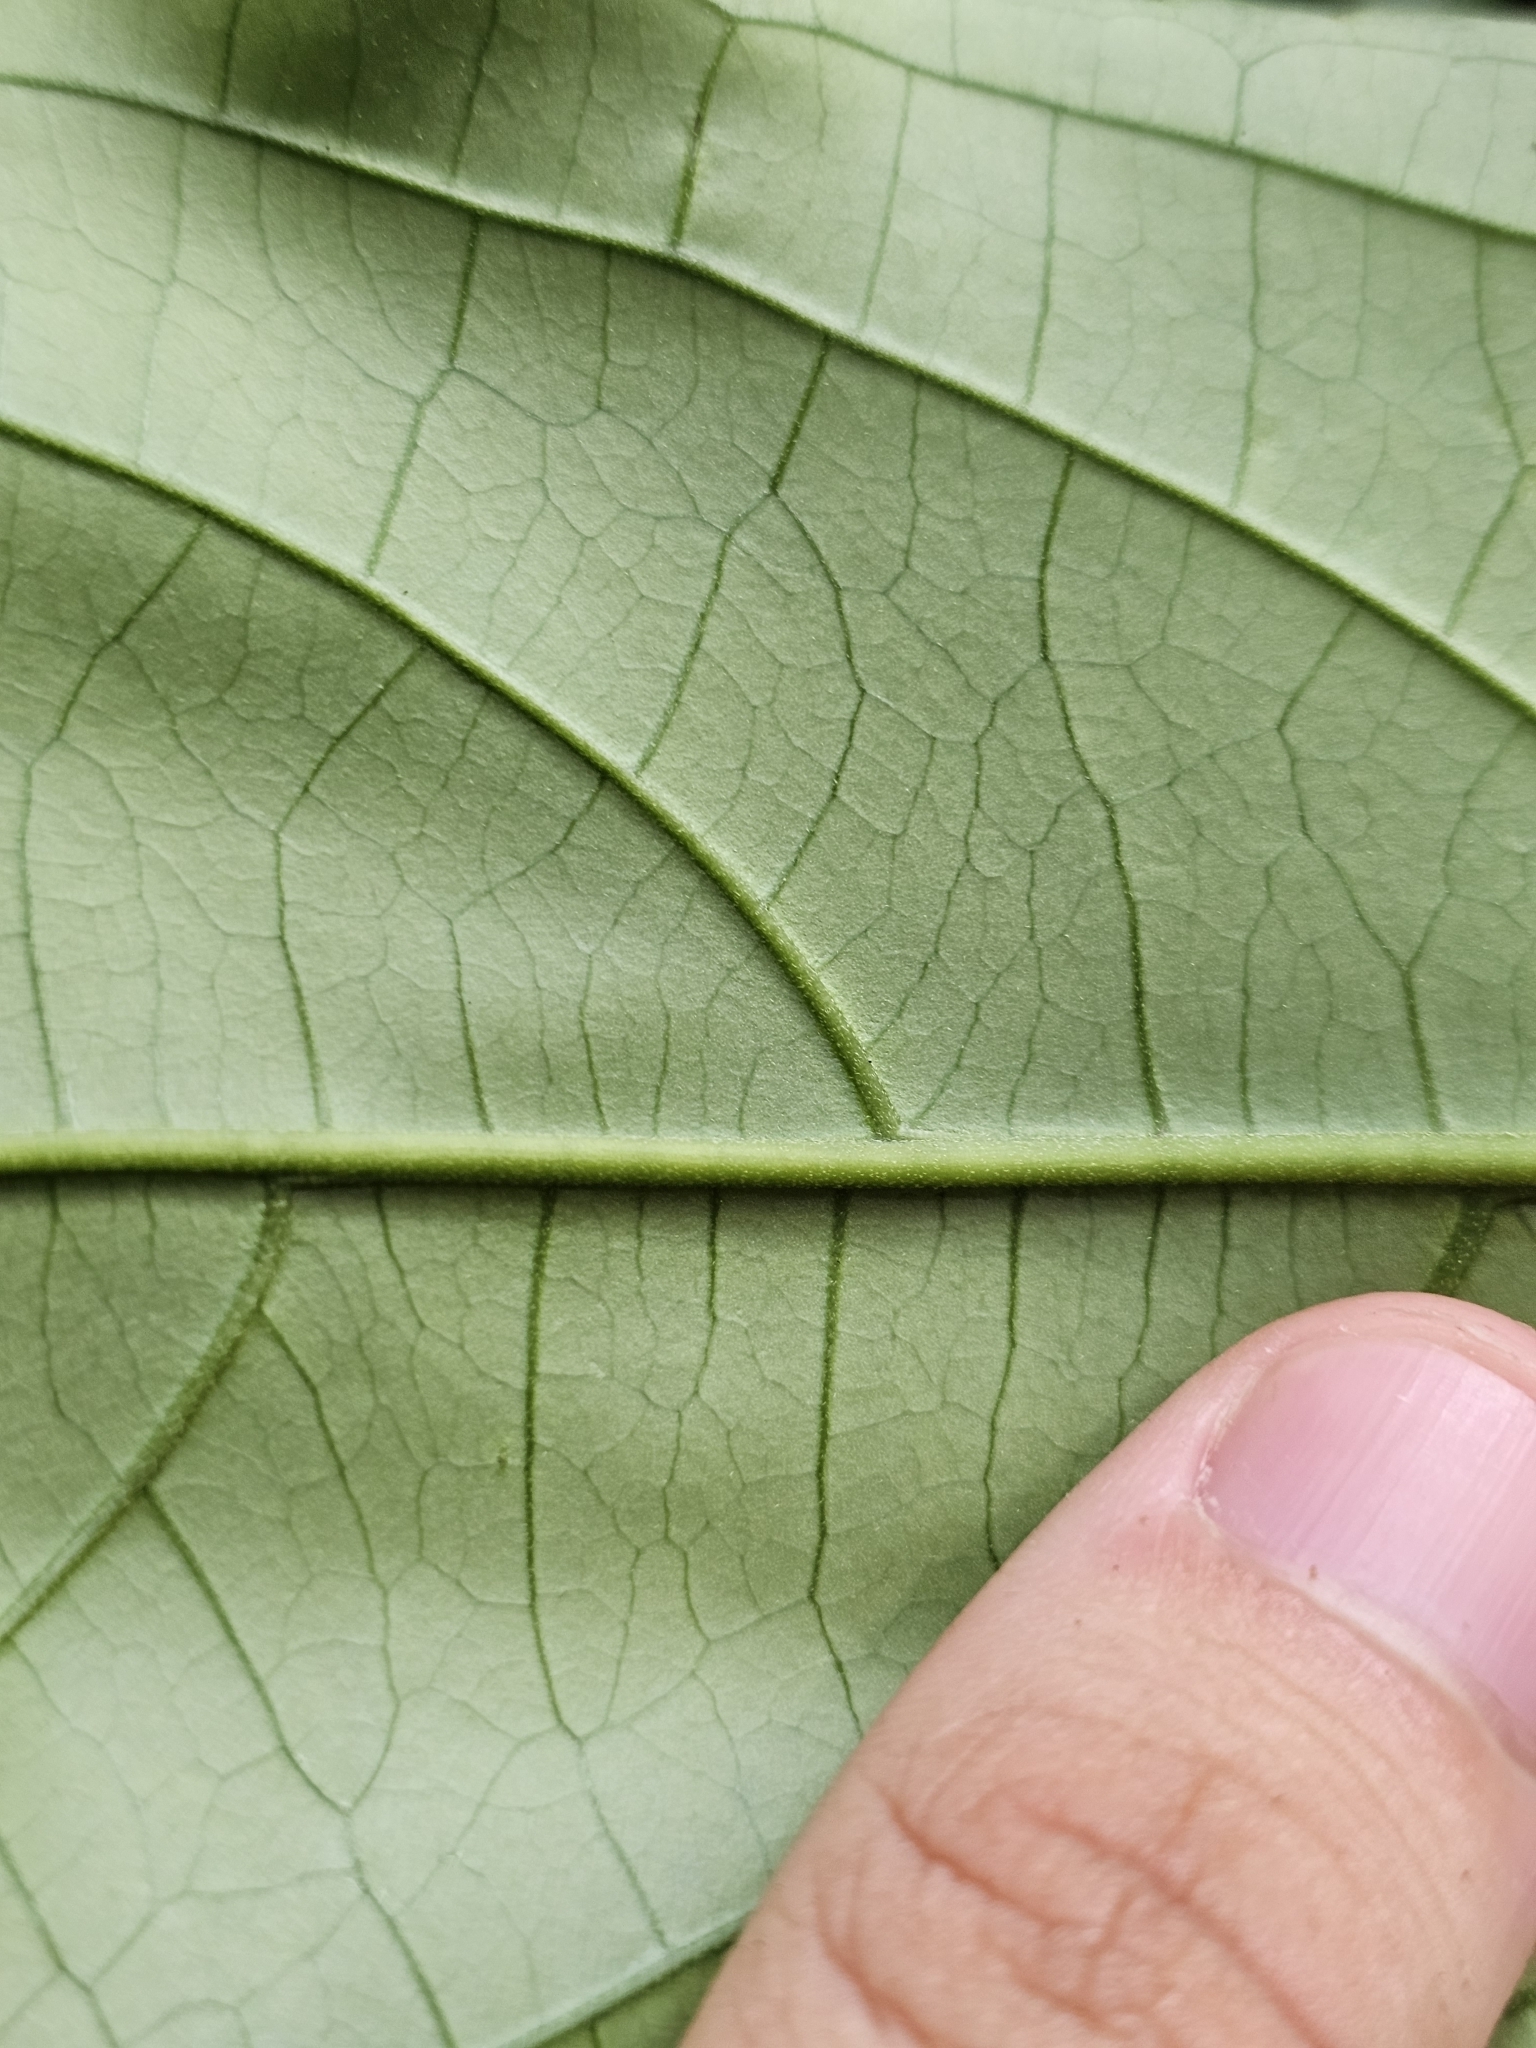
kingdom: Plantae
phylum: Tracheophyta
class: Magnoliopsida
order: Malpighiales
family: Euphorbiaceae
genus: Claoxylon
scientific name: Claoxylon longifolium
